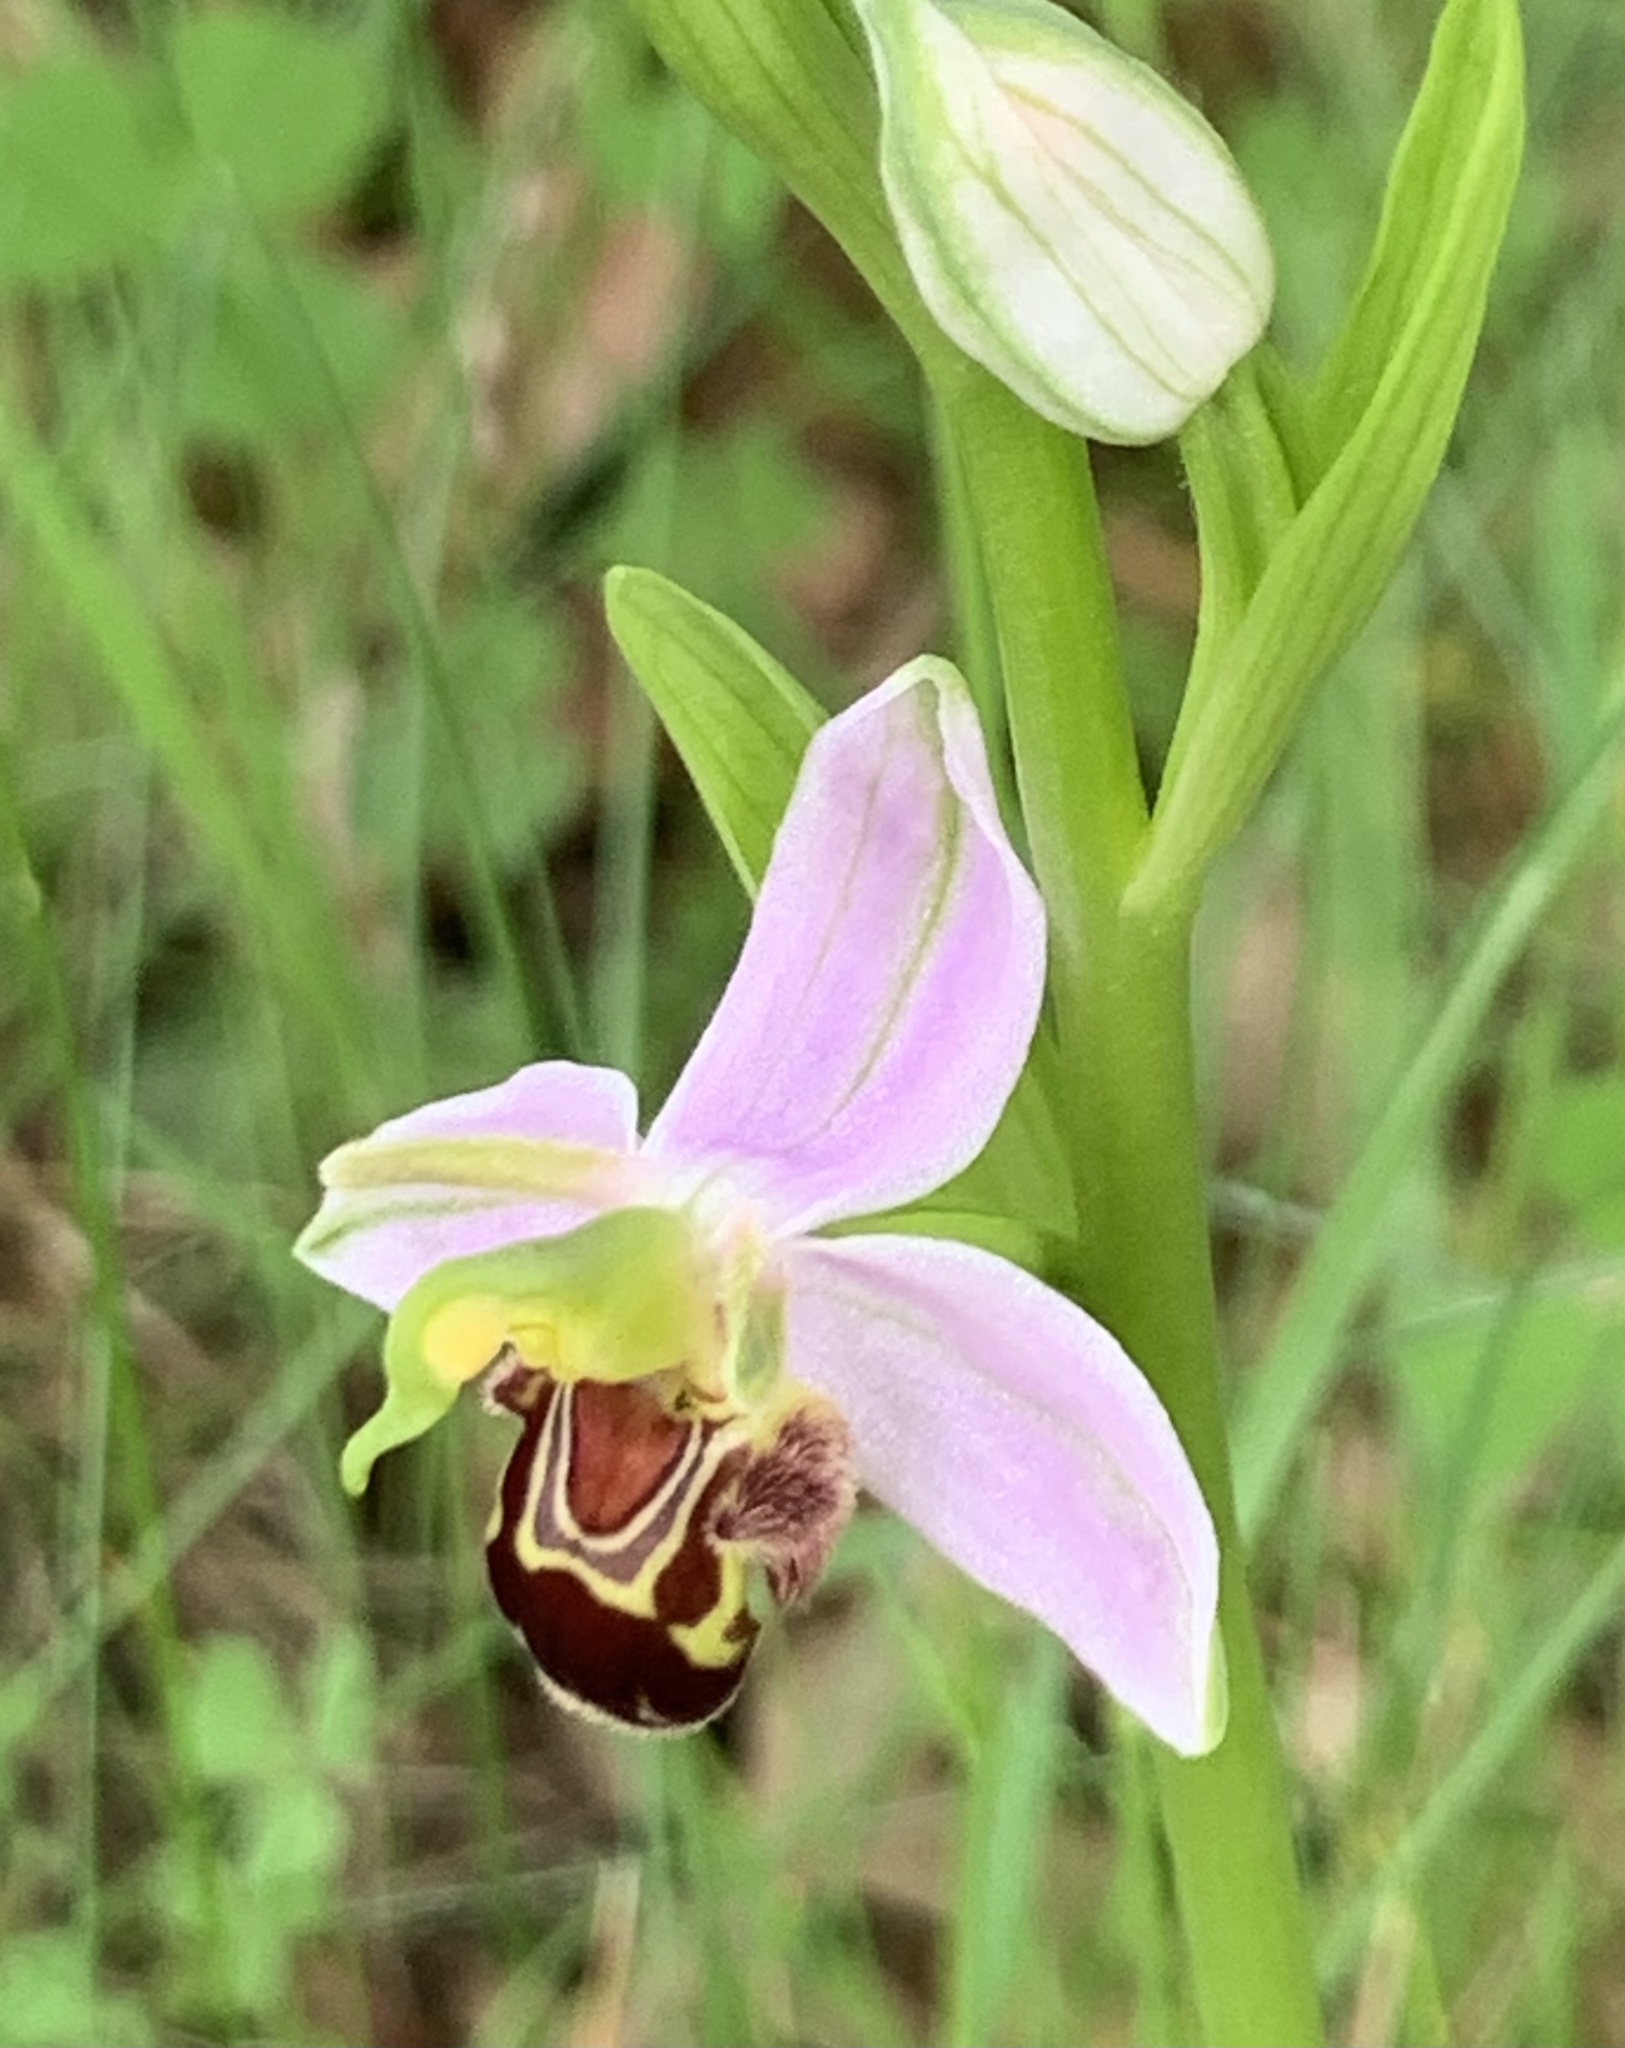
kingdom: Plantae
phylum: Tracheophyta
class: Liliopsida
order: Asparagales
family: Orchidaceae
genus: Ophrys
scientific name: Ophrys apifera
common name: Bee orchid
